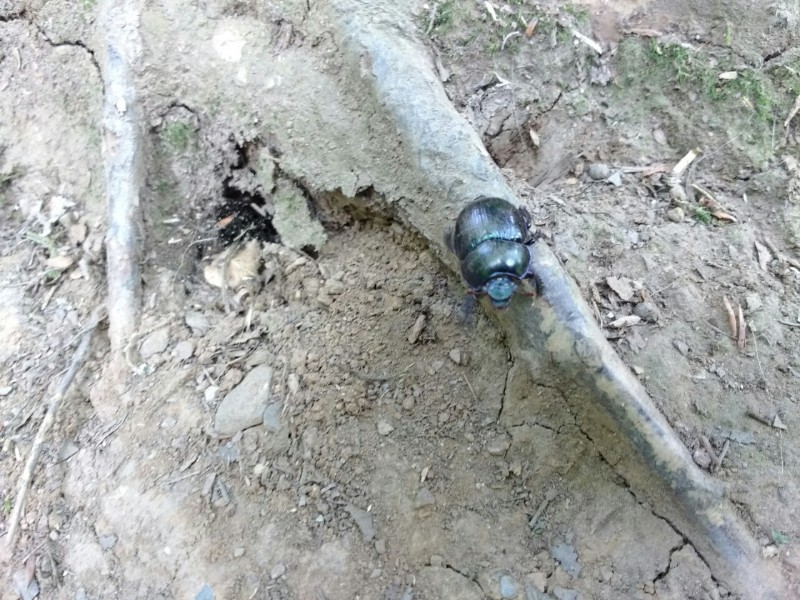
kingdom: Animalia
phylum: Arthropoda
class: Insecta
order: Coleoptera
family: Geotrupidae
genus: Anoplotrupes
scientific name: Anoplotrupes stercorosus
